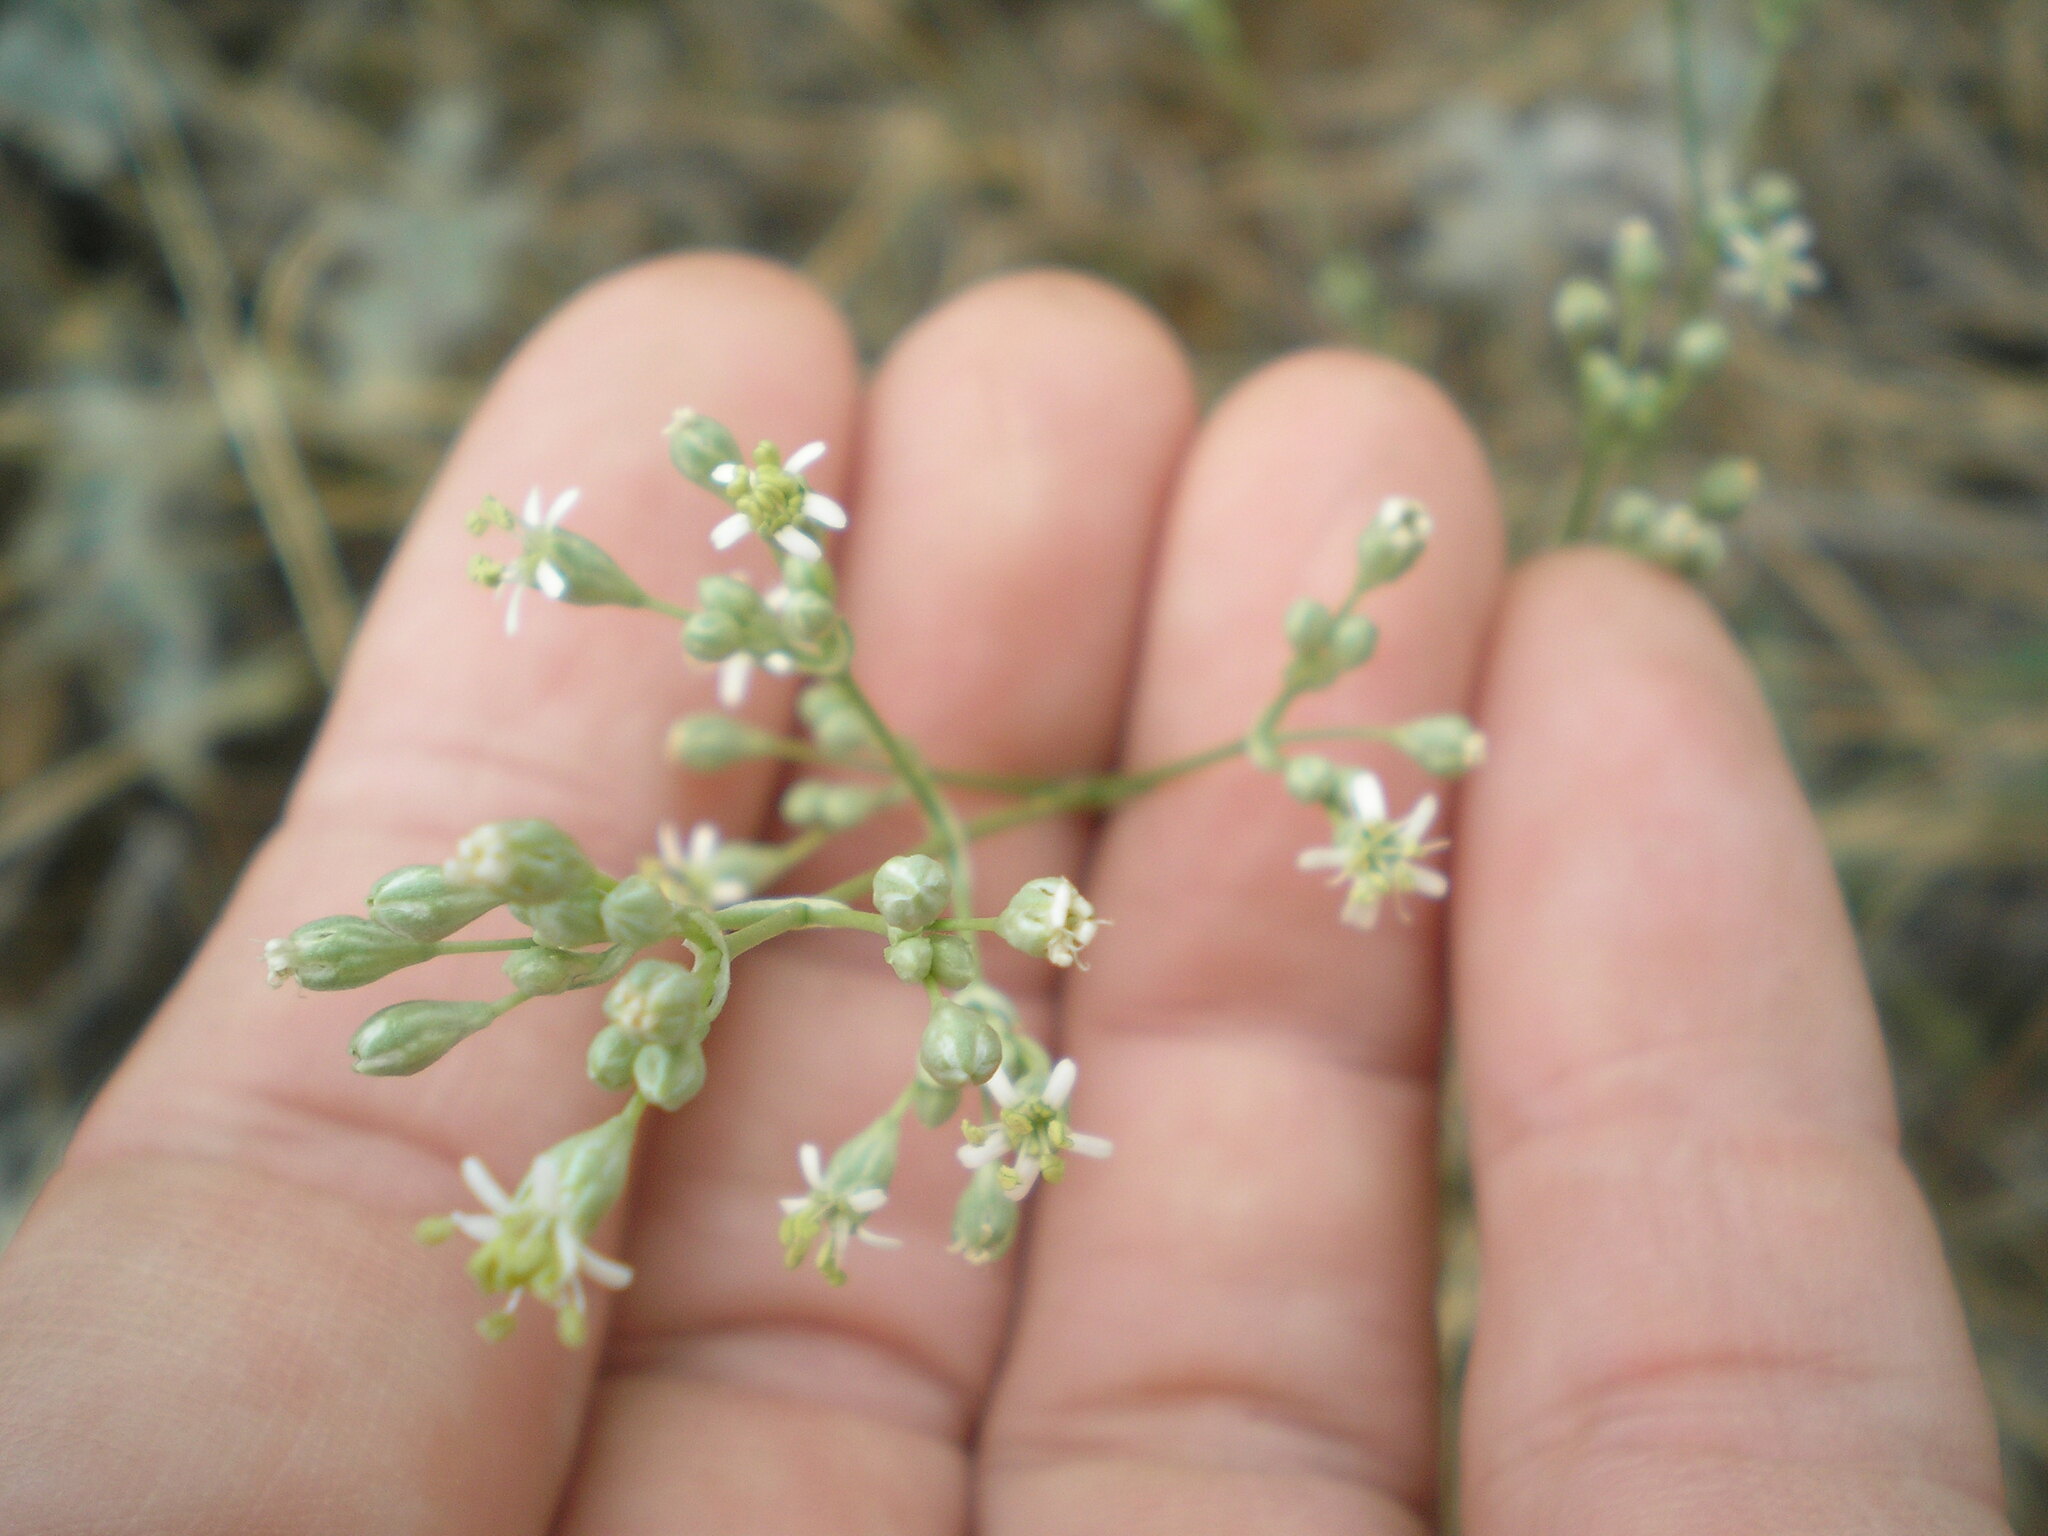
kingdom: Plantae
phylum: Tracheophyta
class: Magnoliopsida
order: Caryophyllales
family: Caryophyllaceae
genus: Silene
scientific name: Silene wolgensis
